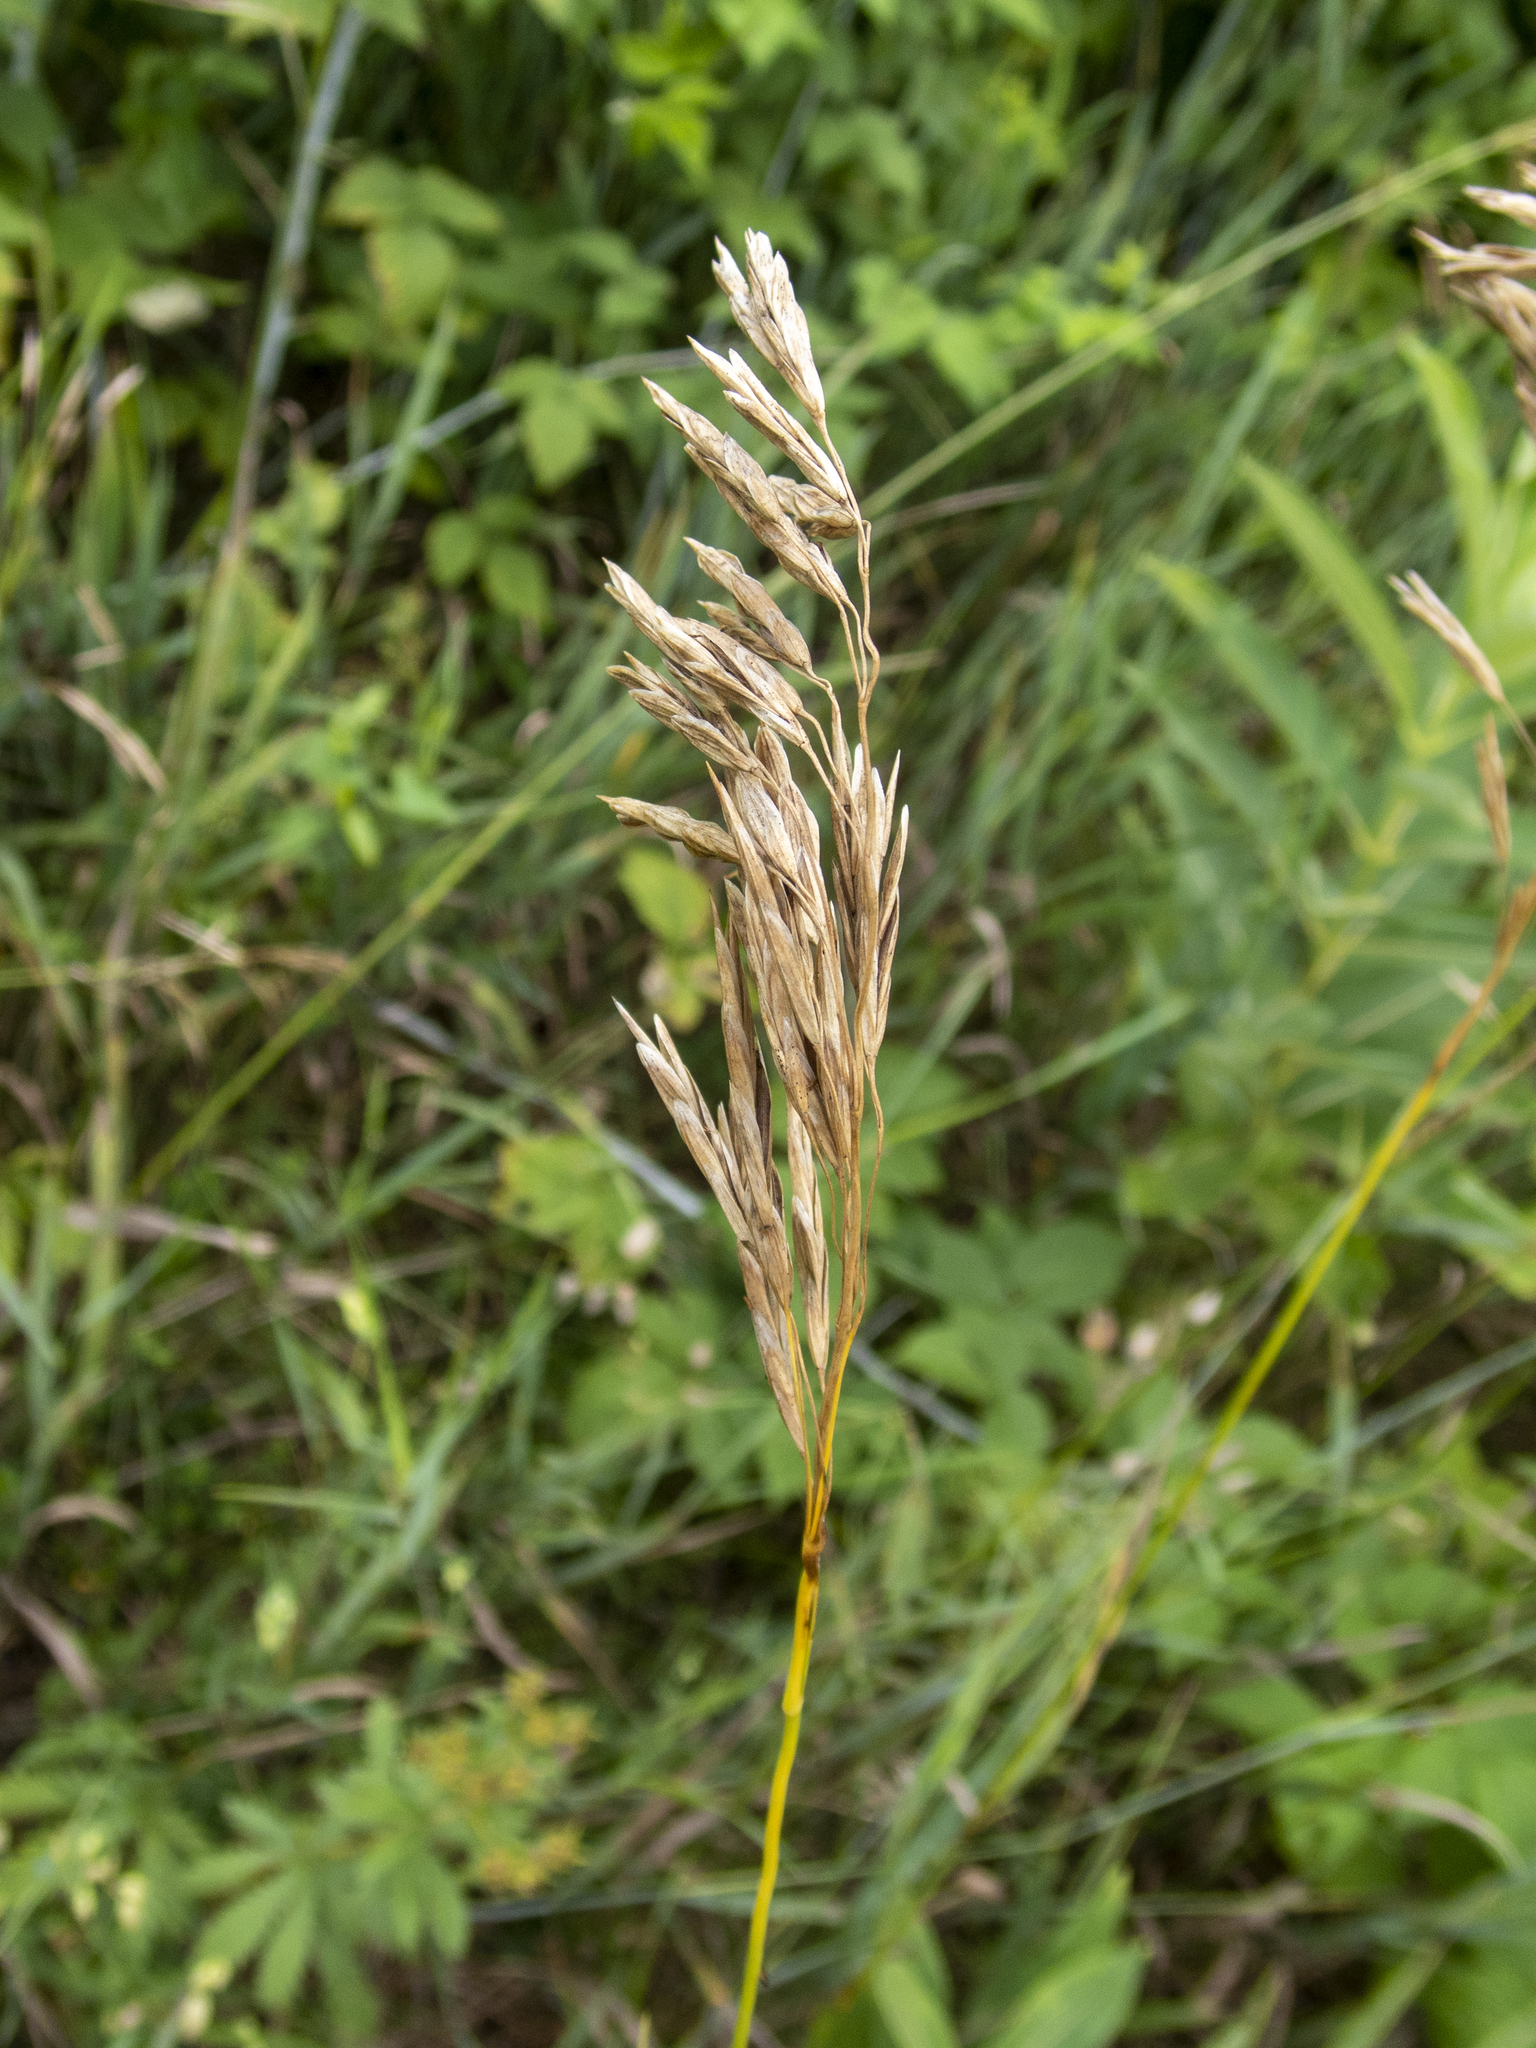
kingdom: Plantae
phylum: Tracheophyta
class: Liliopsida
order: Poales
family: Poaceae
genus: Bromus
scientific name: Bromus inermis
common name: Smooth brome
